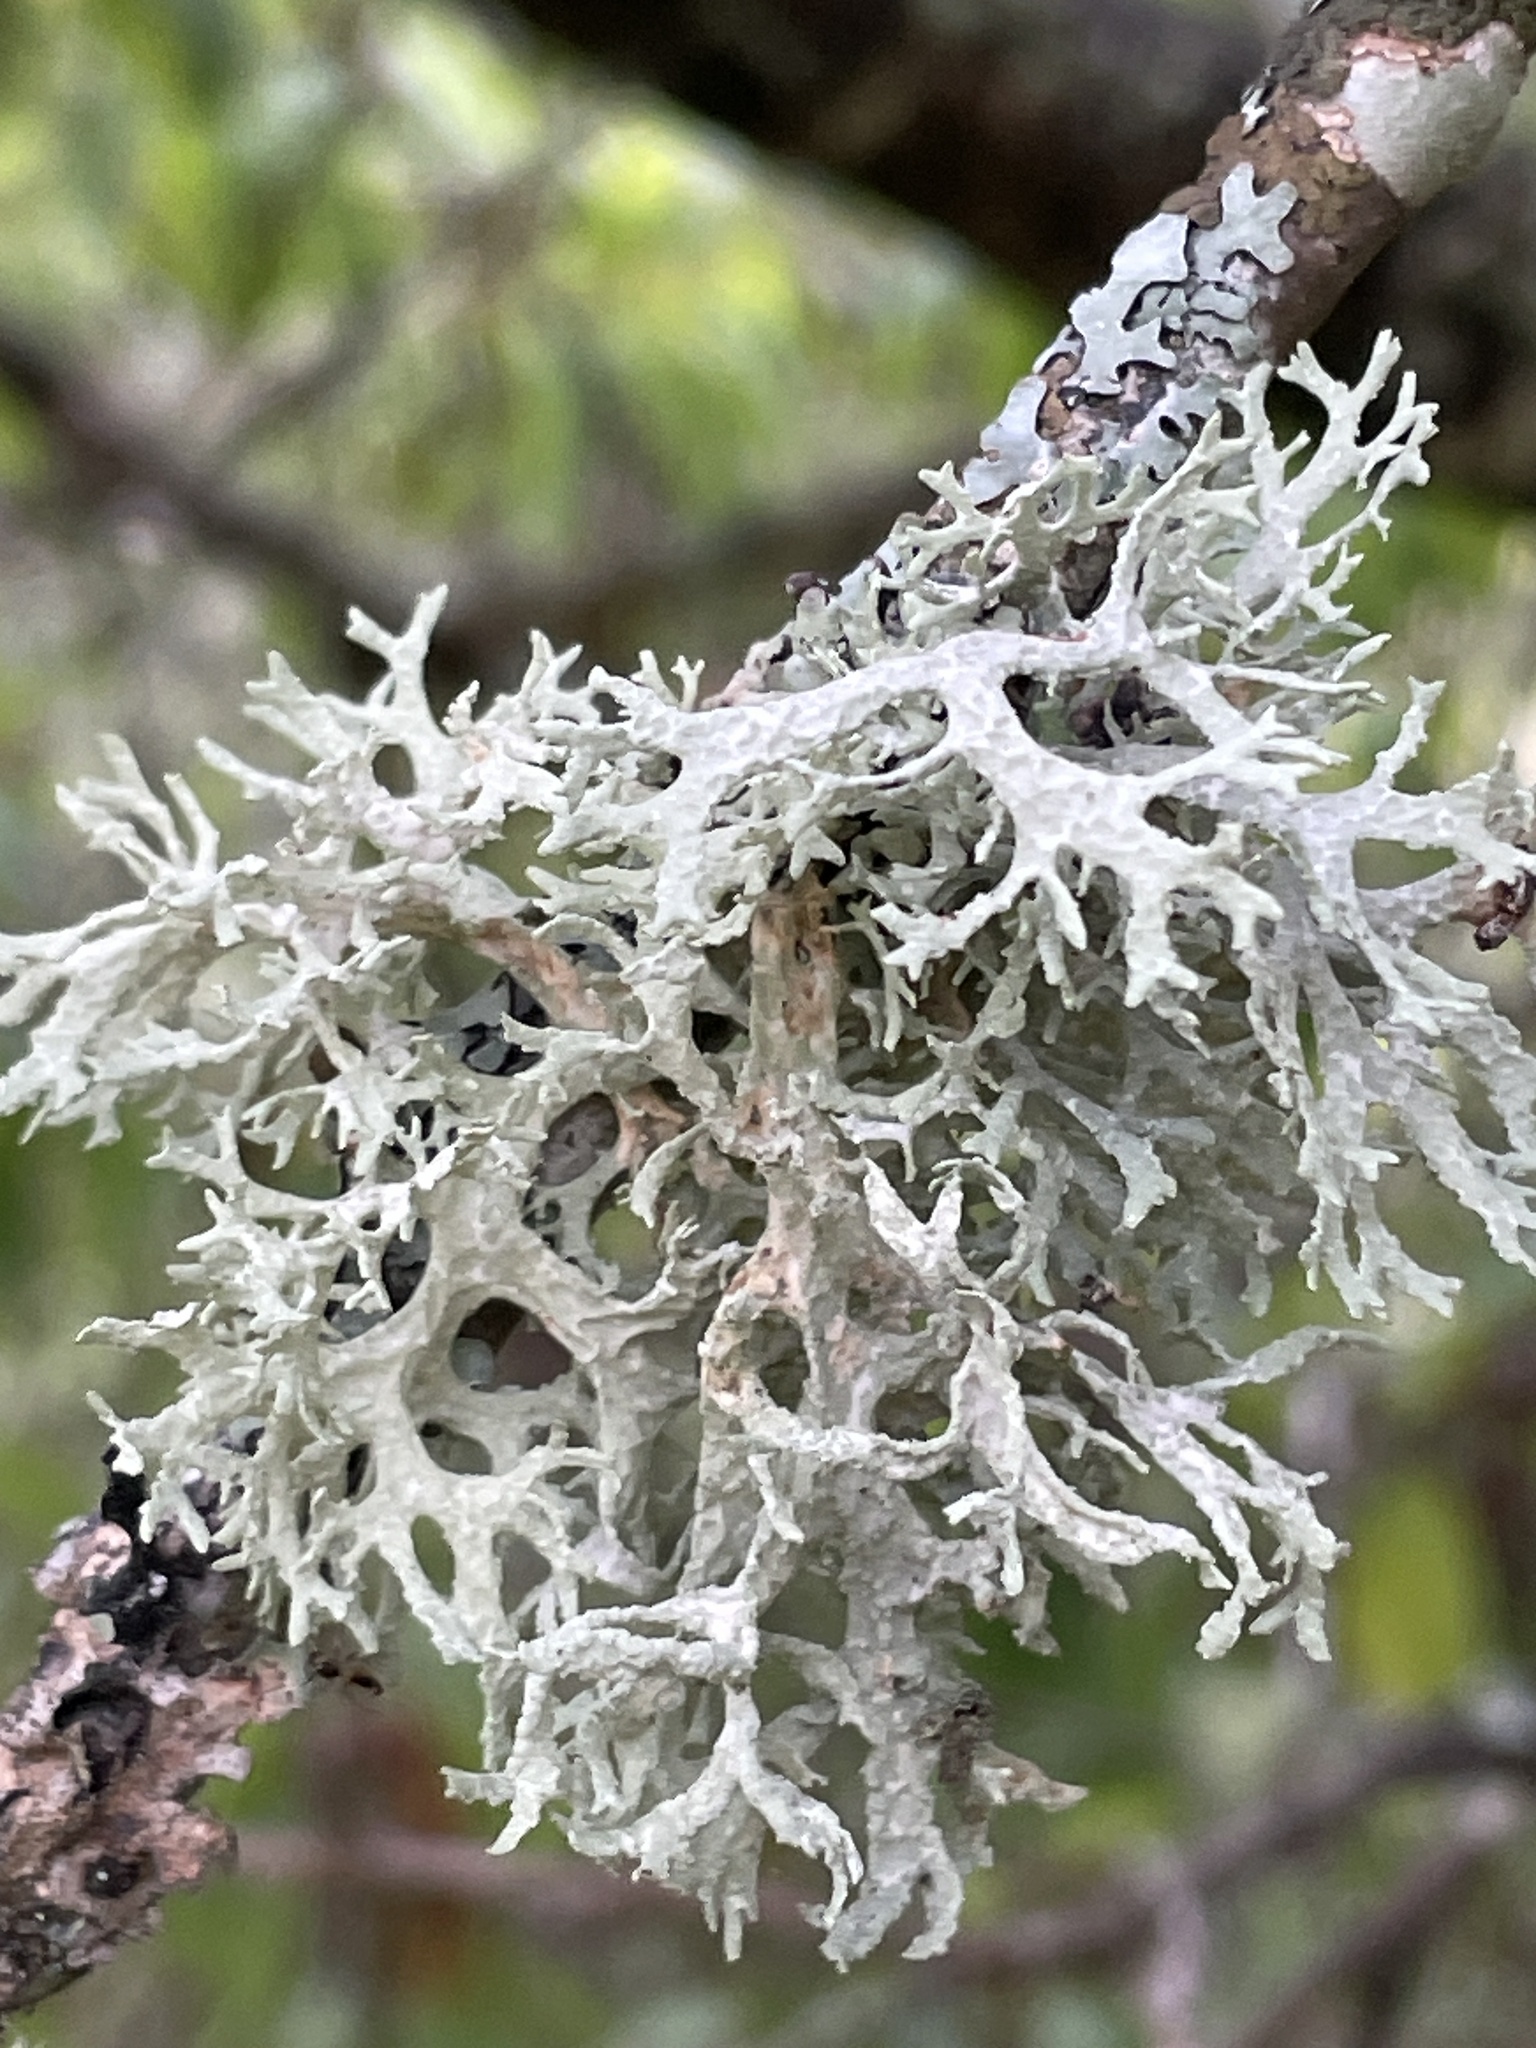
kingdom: Fungi
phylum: Ascomycota
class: Lecanoromycetes
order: Lecanorales
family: Parmeliaceae
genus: Evernia
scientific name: Evernia prunastri
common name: Oak moss
